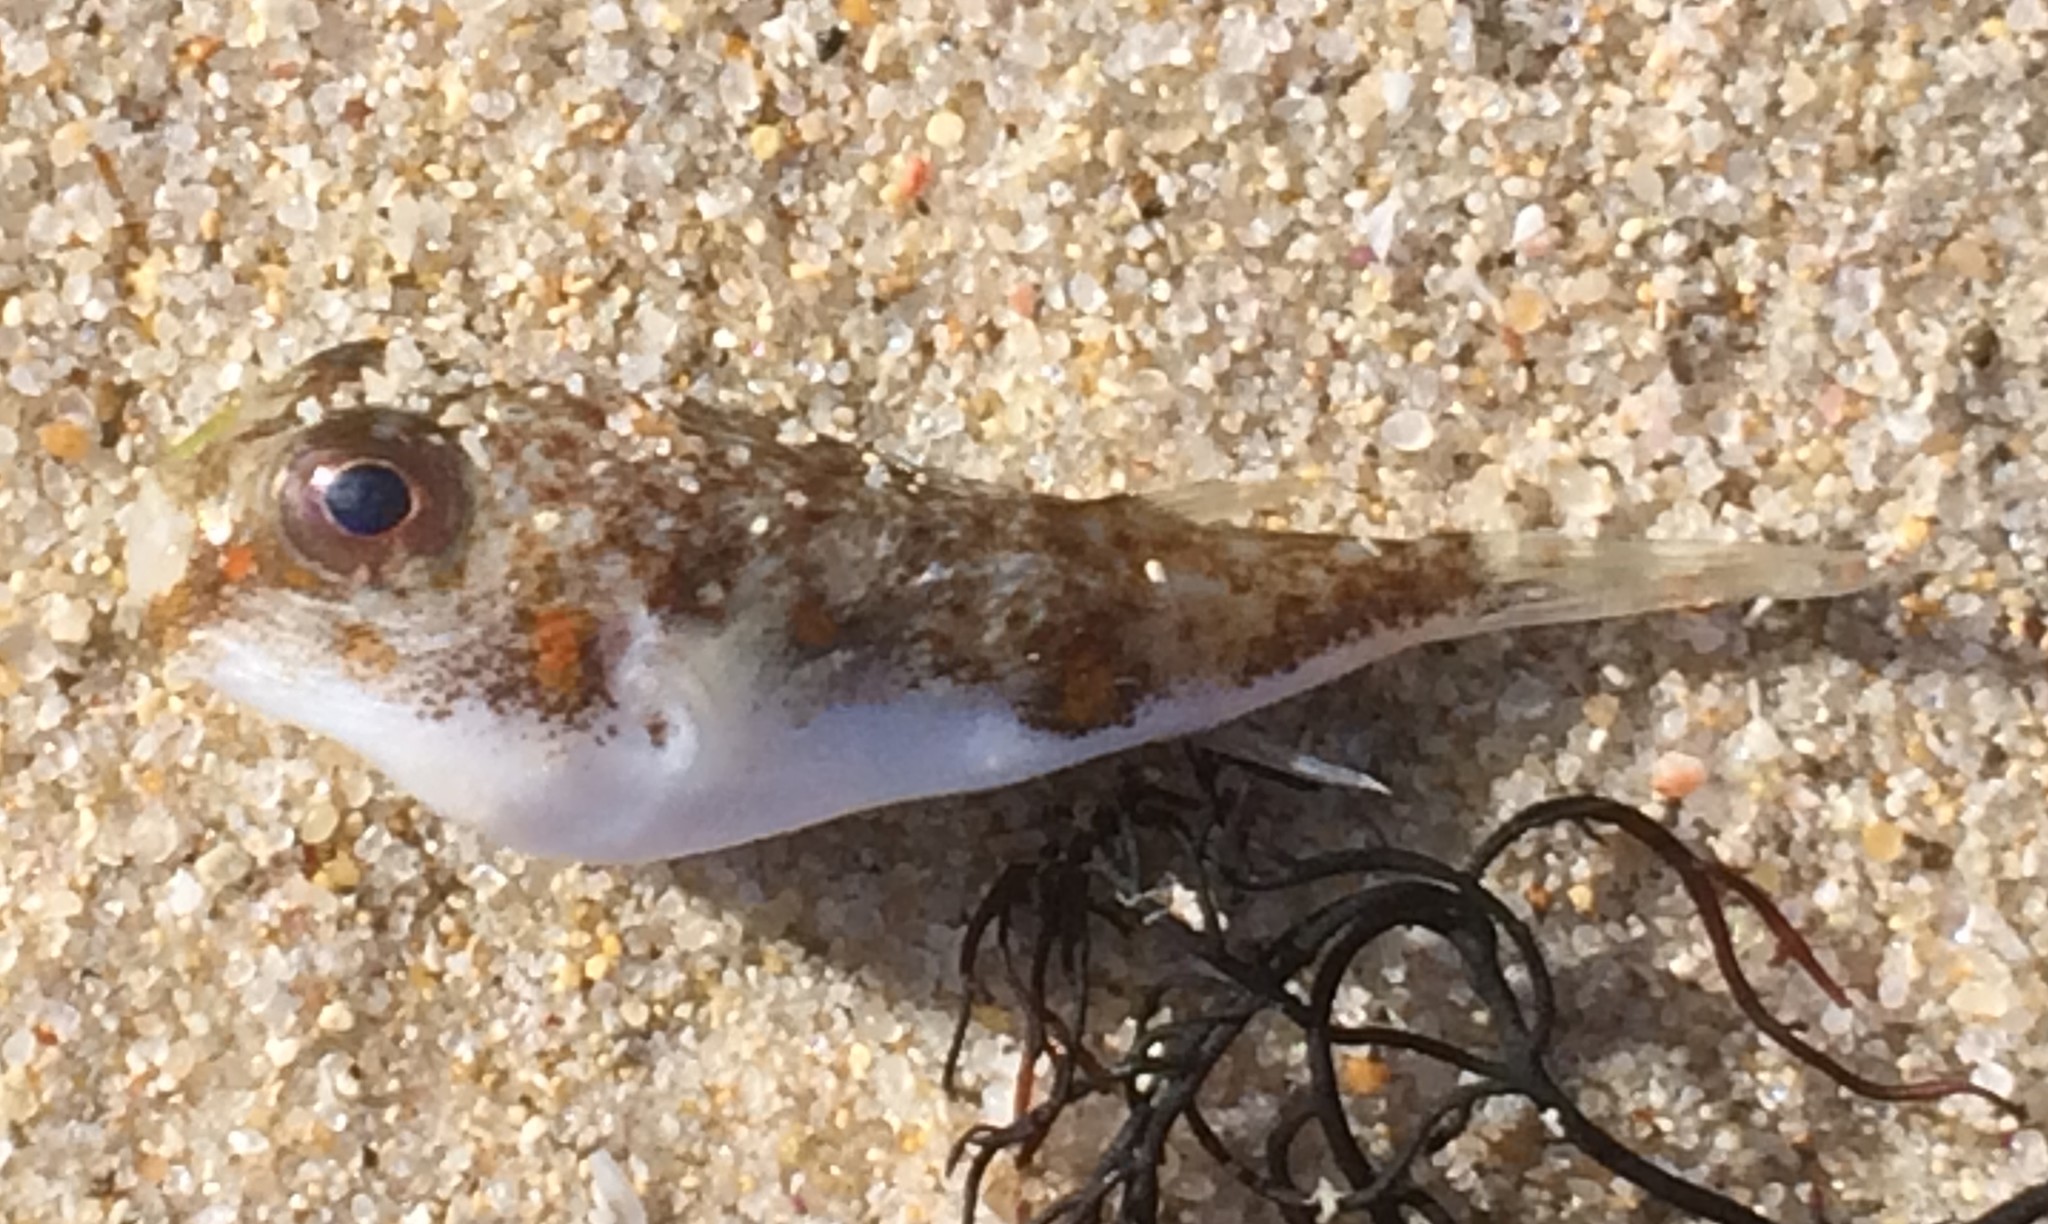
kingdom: Animalia
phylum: Chordata
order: Tetraodontiformes
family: Tetraodontidae
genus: Polyspina
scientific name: Polyspina piosae
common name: Orange-barred pufferfish
